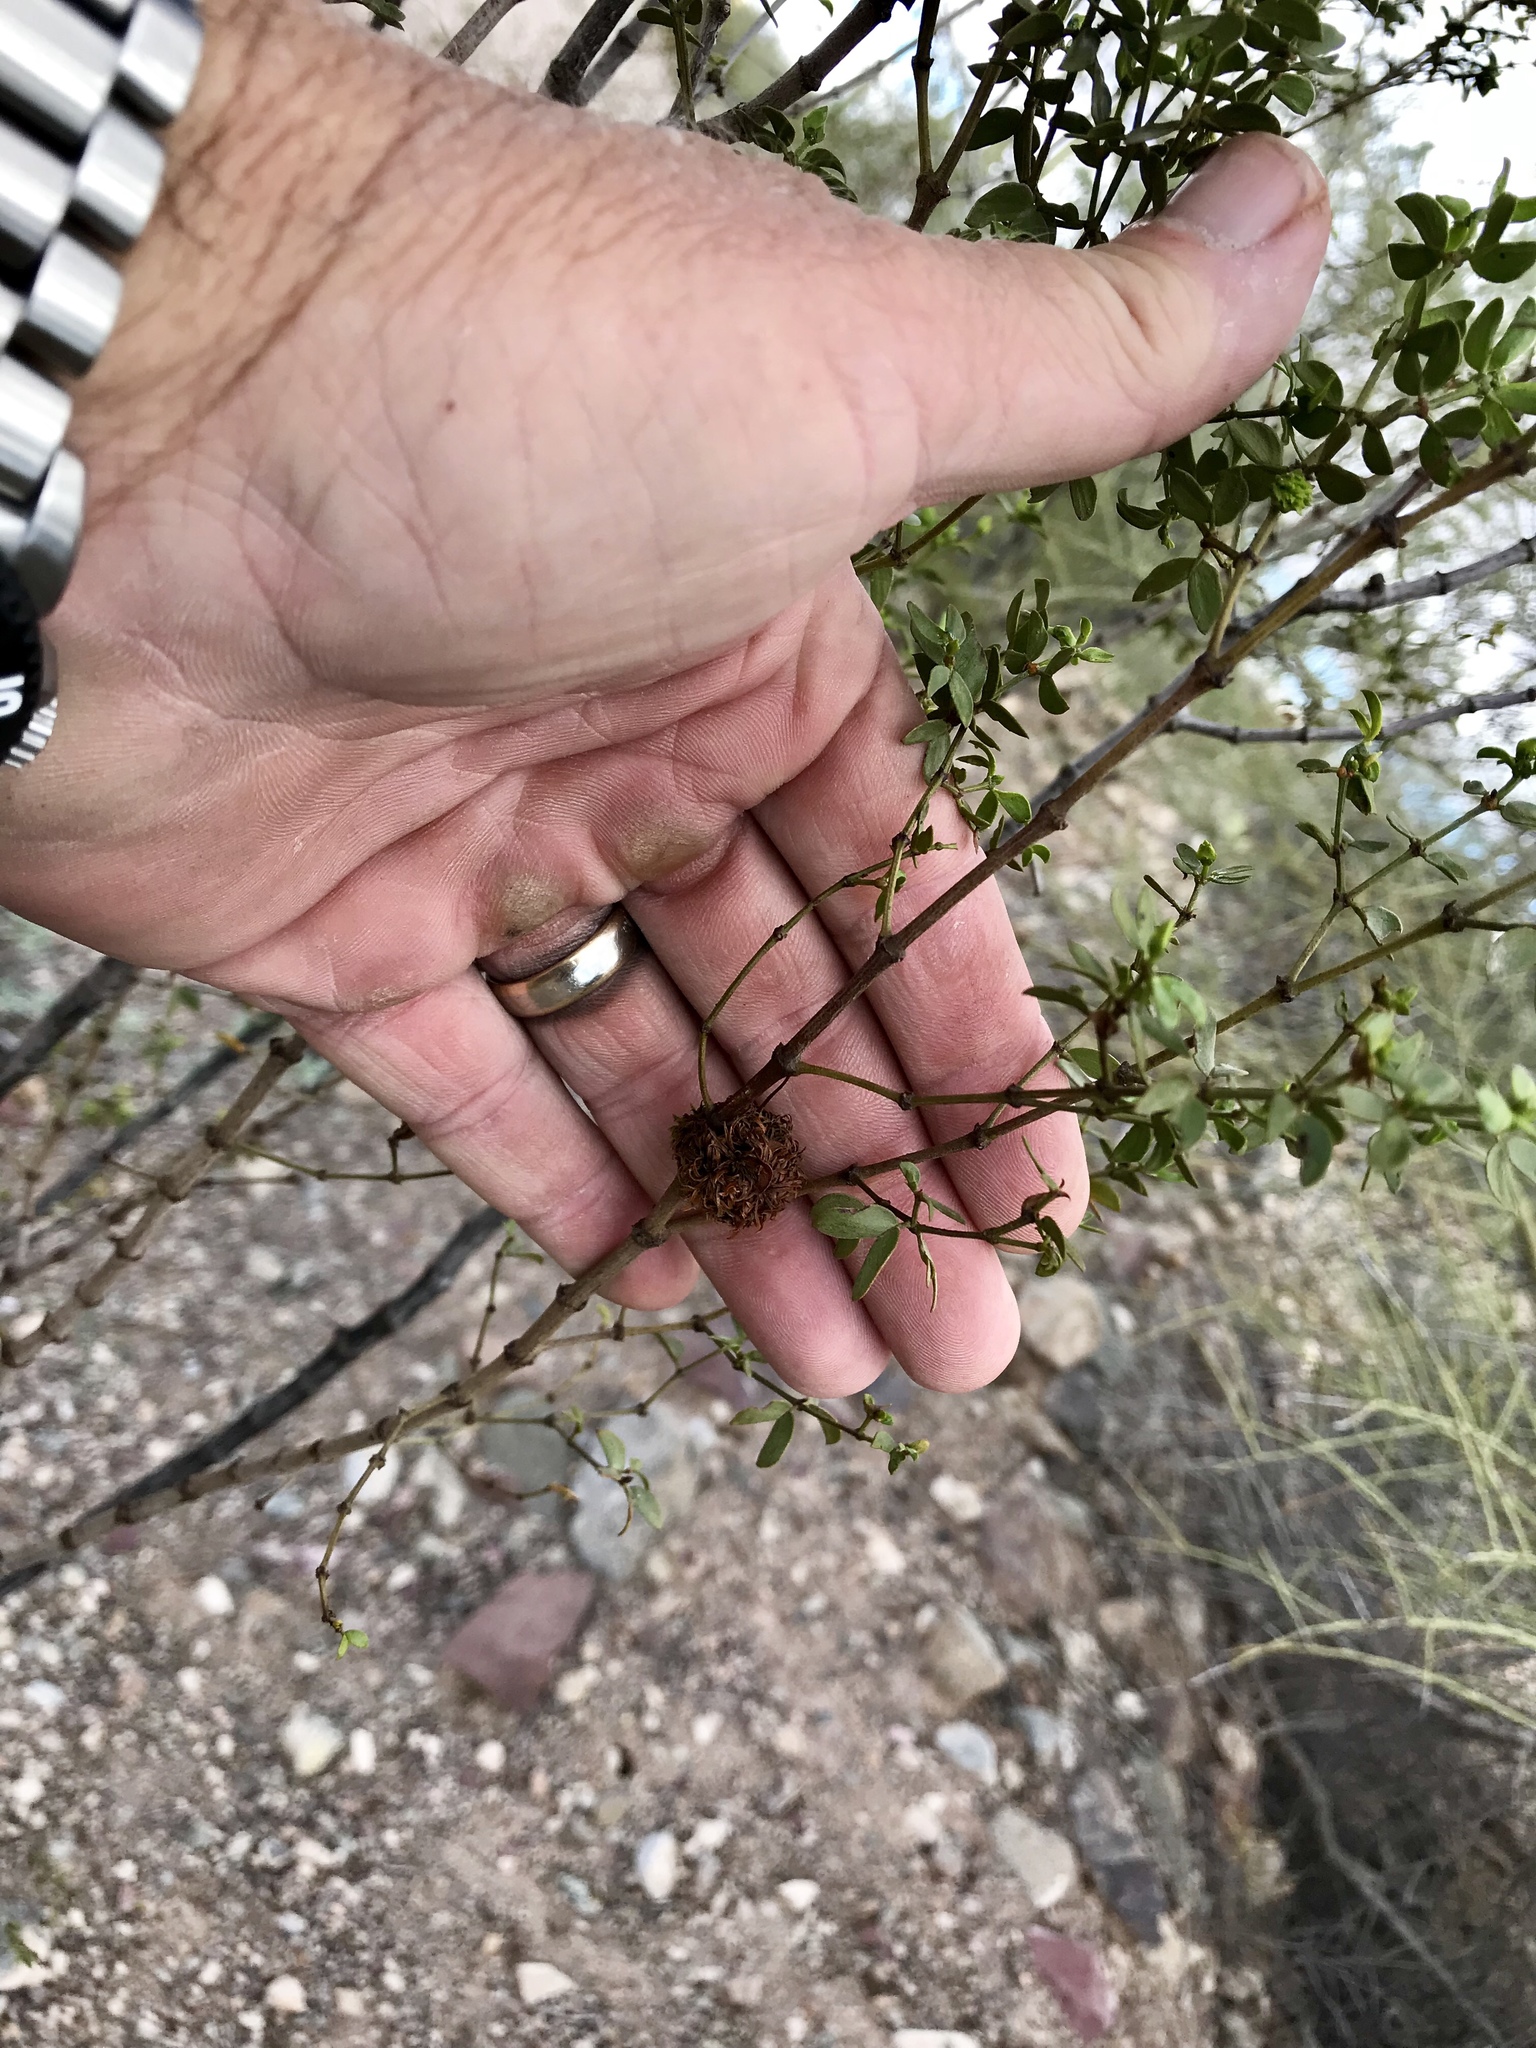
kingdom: Plantae
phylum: Tracheophyta
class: Magnoliopsida
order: Zygophyllales
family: Zygophyllaceae
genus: Larrea
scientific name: Larrea tridentata
